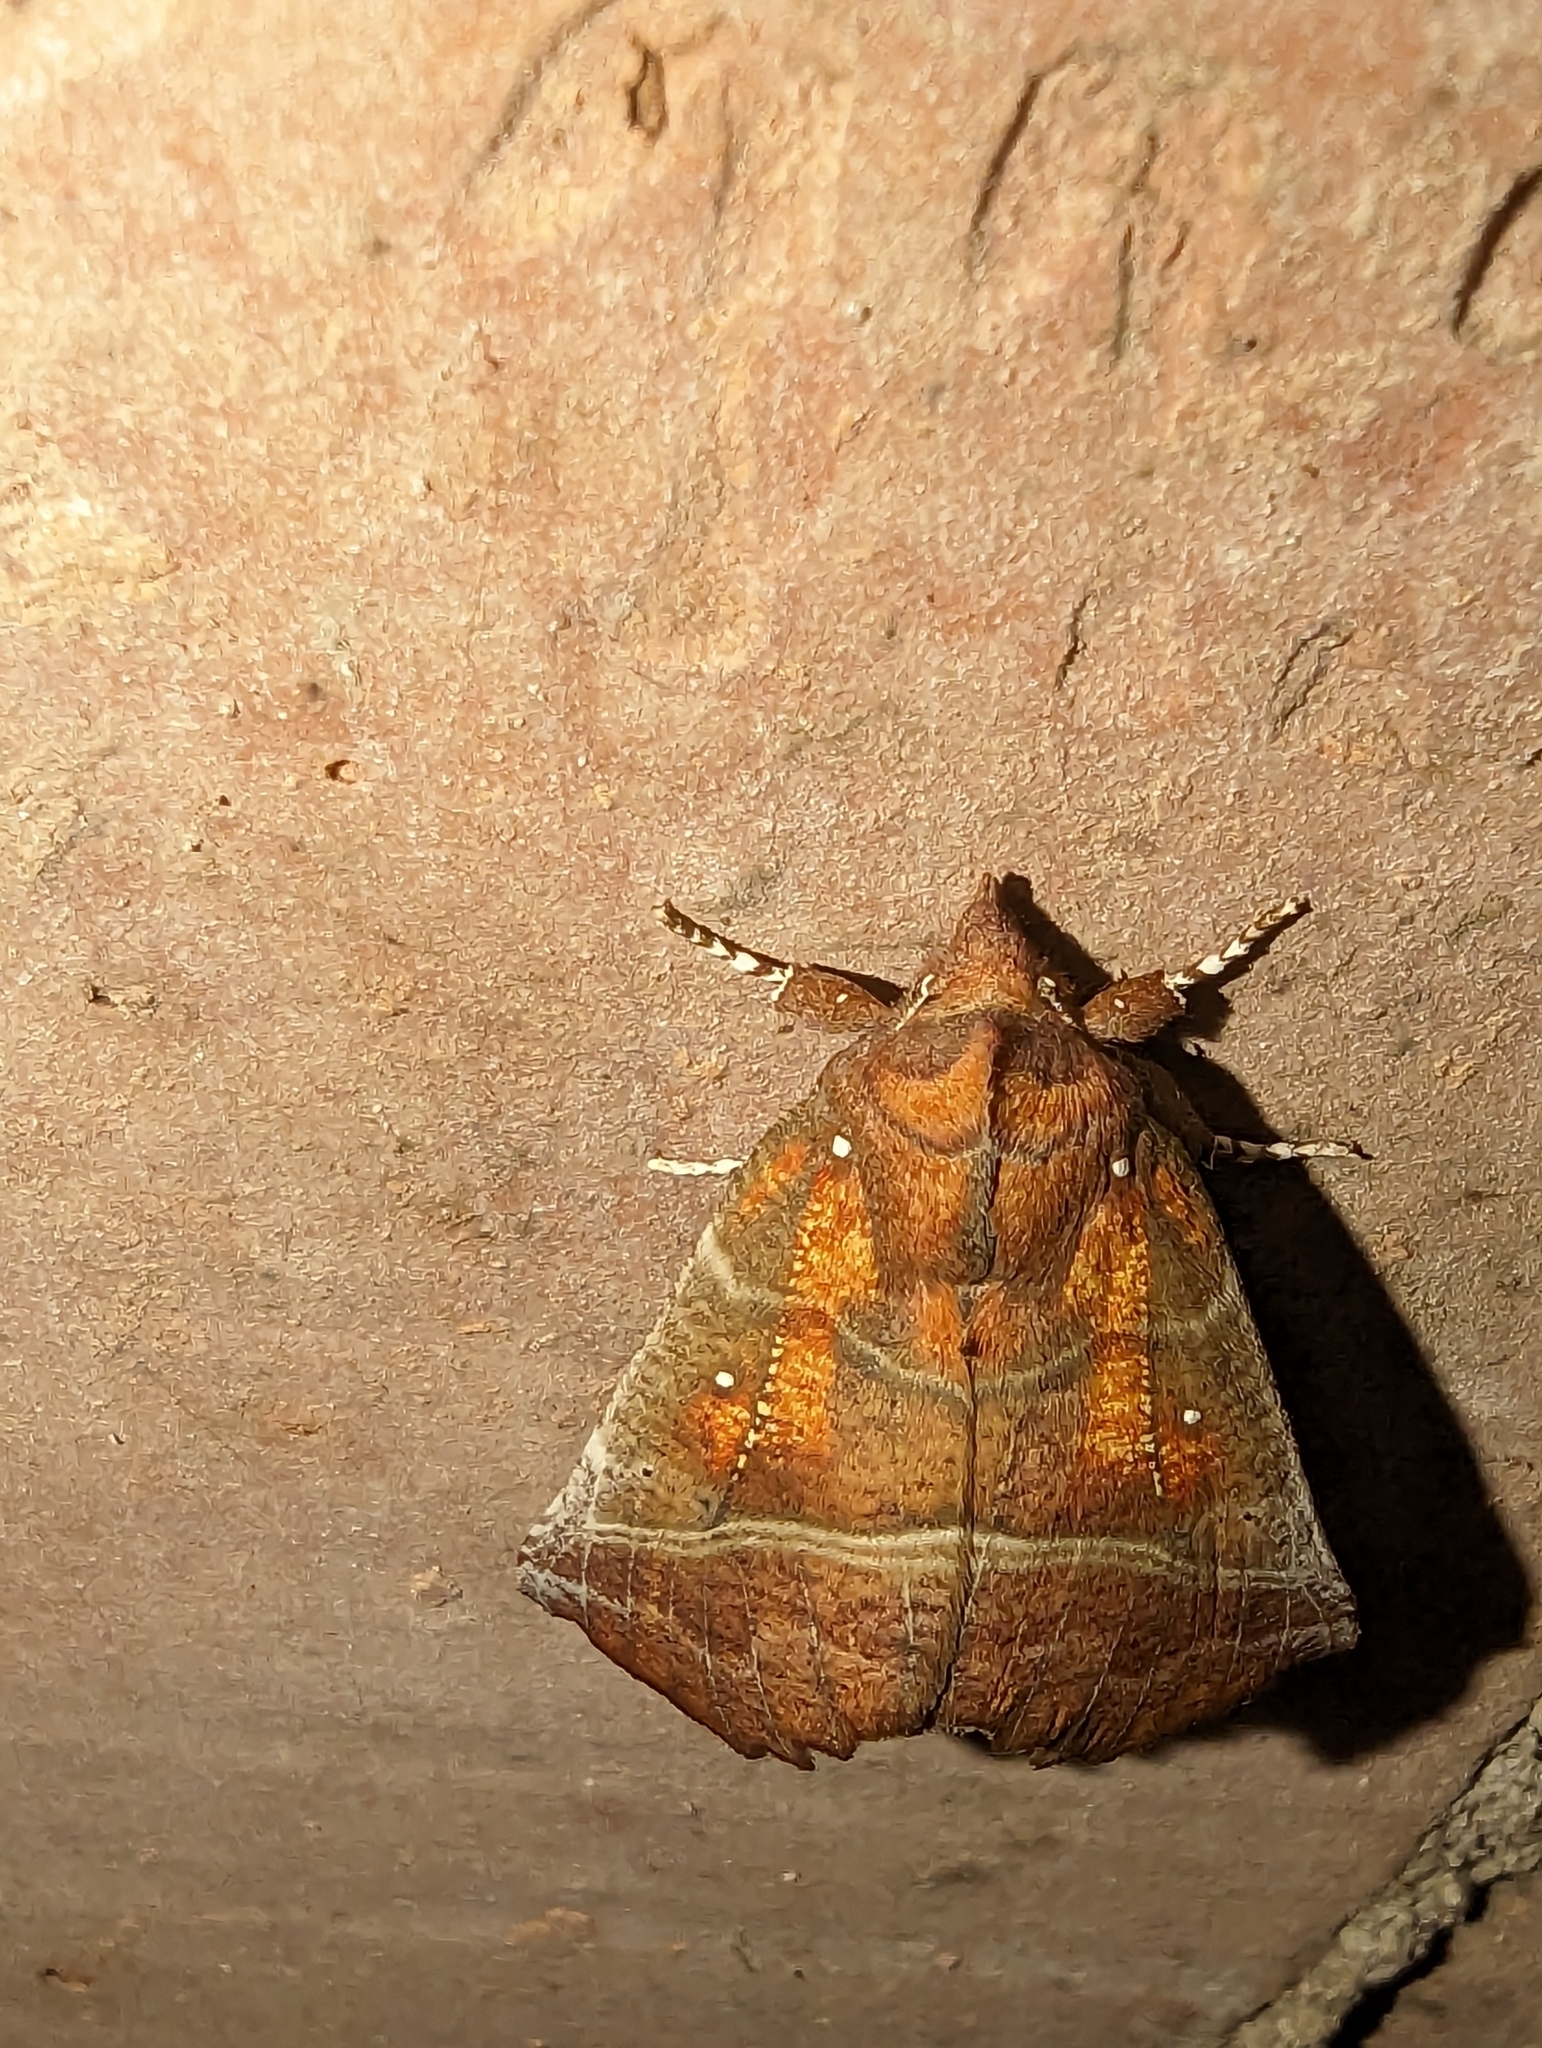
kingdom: Animalia
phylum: Arthropoda
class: Insecta
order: Lepidoptera
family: Erebidae
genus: Scoliopteryx
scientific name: Scoliopteryx libatrix
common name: Herald
